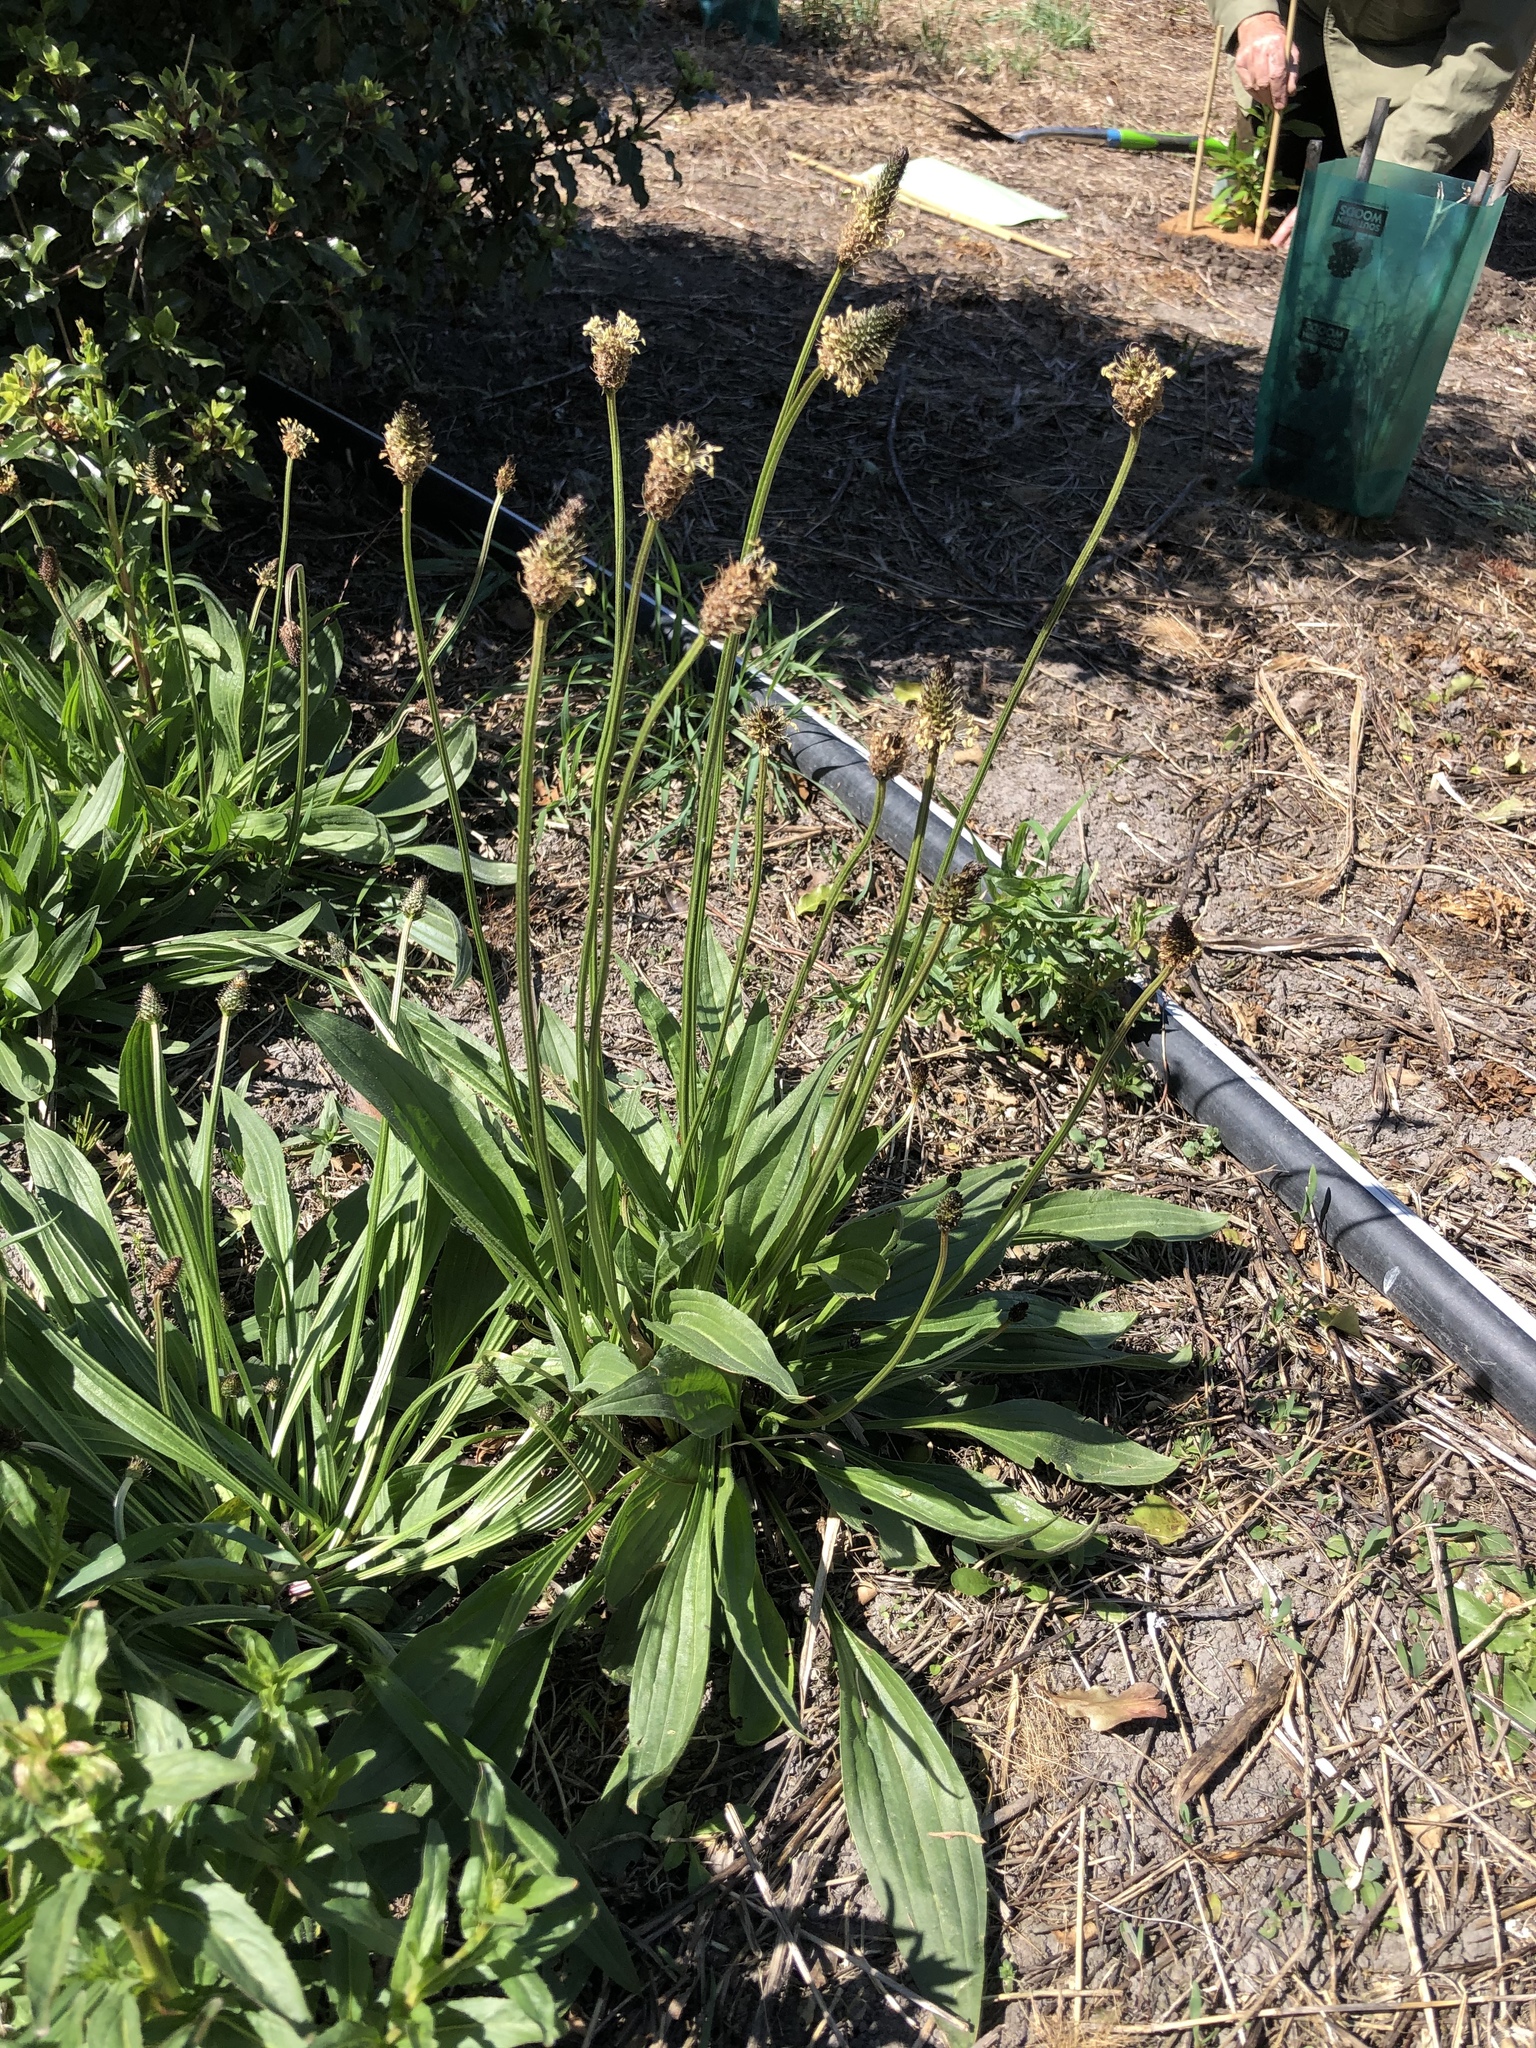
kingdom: Plantae
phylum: Tracheophyta
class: Magnoliopsida
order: Lamiales
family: Plantaginaceae
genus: Plantago
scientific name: Plantago lanceolata
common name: Ribwort plantain
